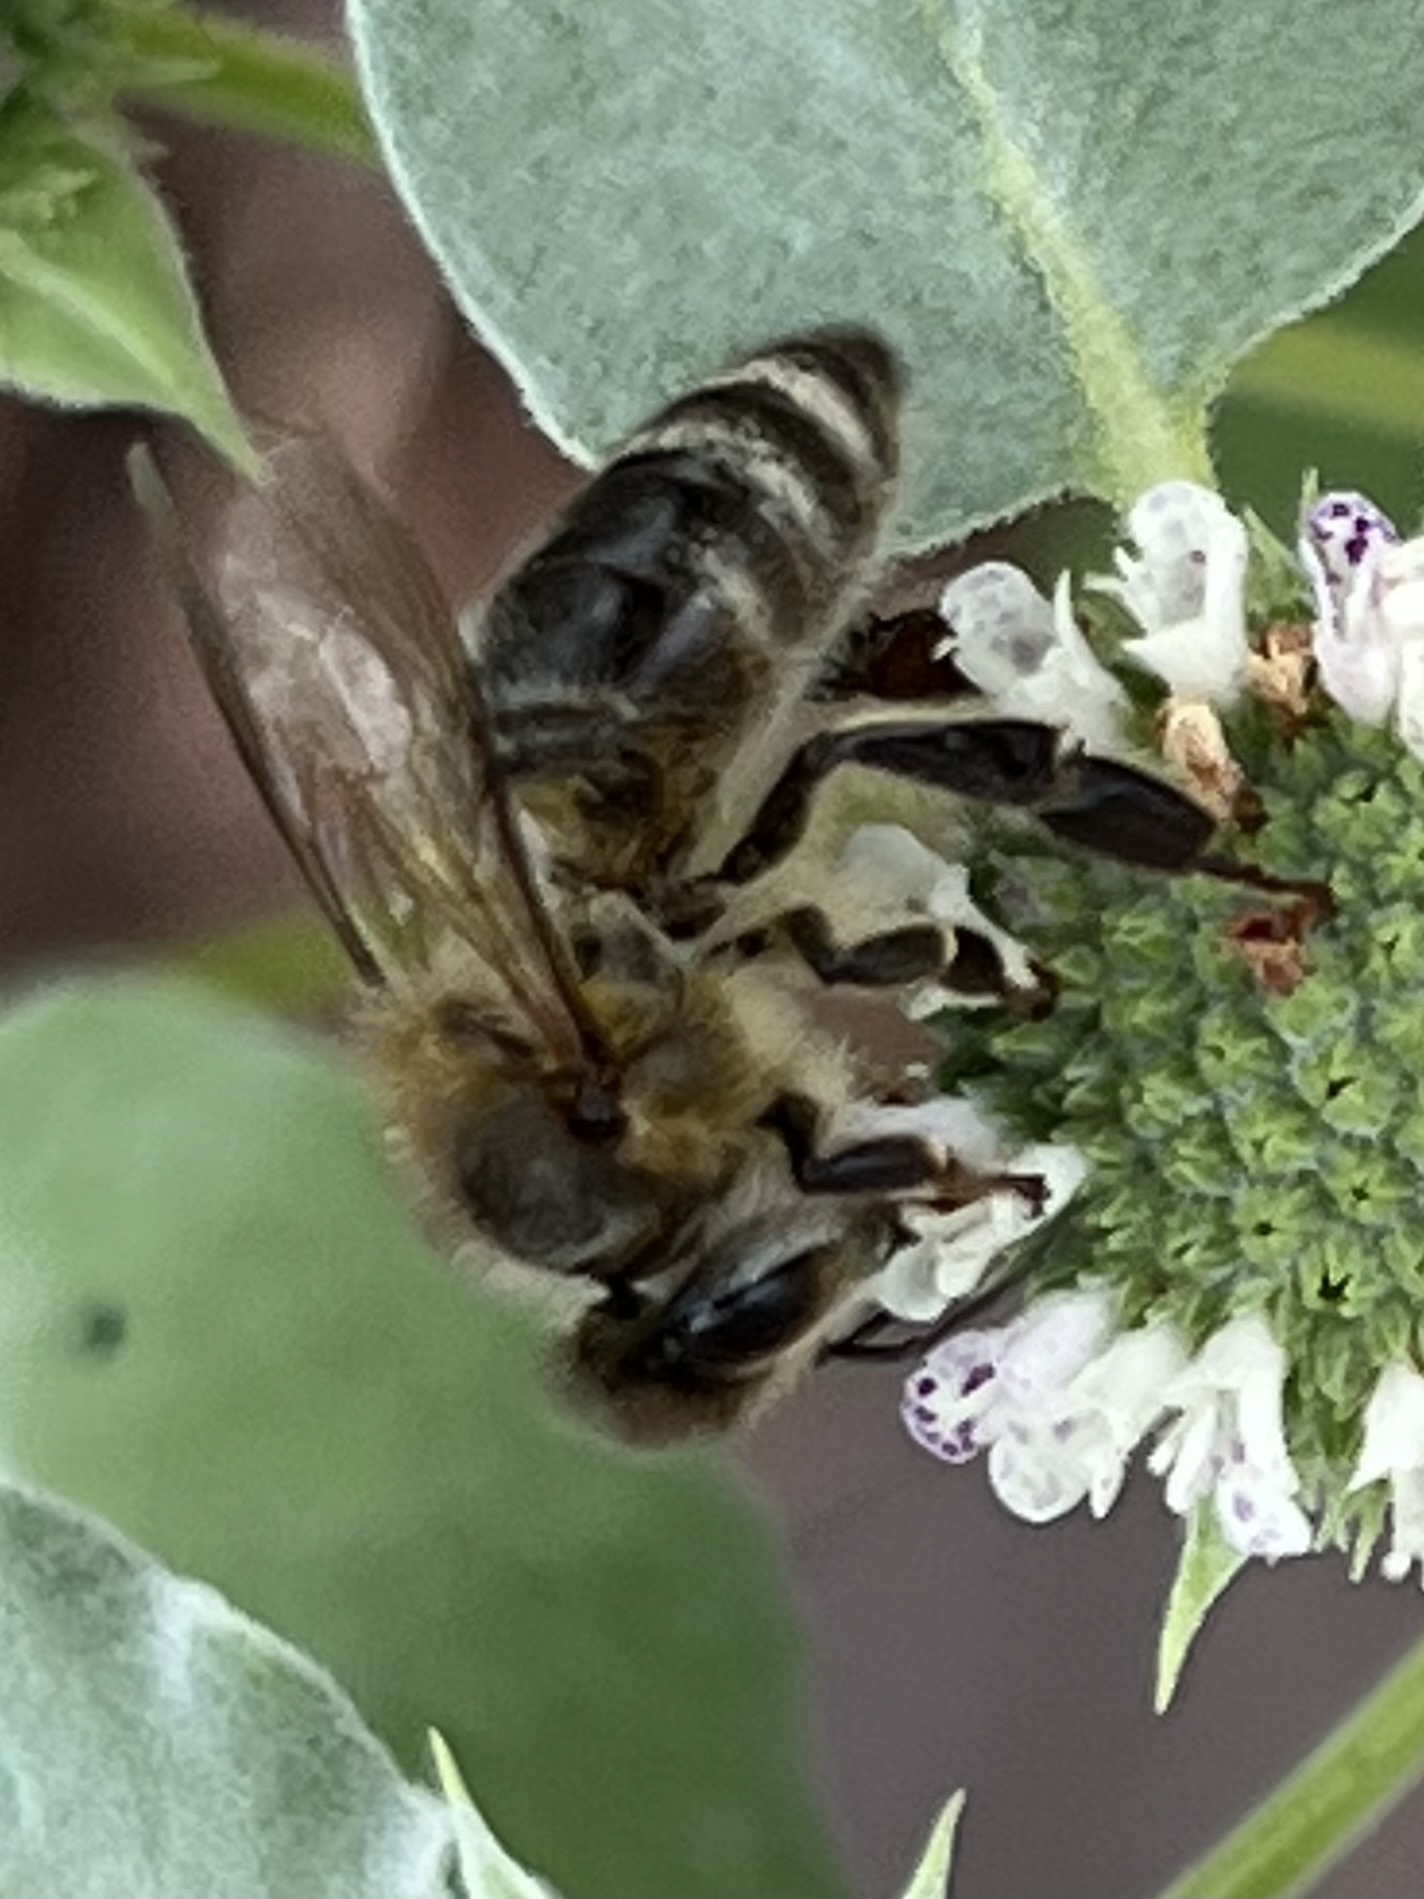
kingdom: Animalia
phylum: Arthropoda
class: Insecta
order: Hymenoptera
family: Apidae
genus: Apis
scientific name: Apis mellifera
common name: Honey bee
